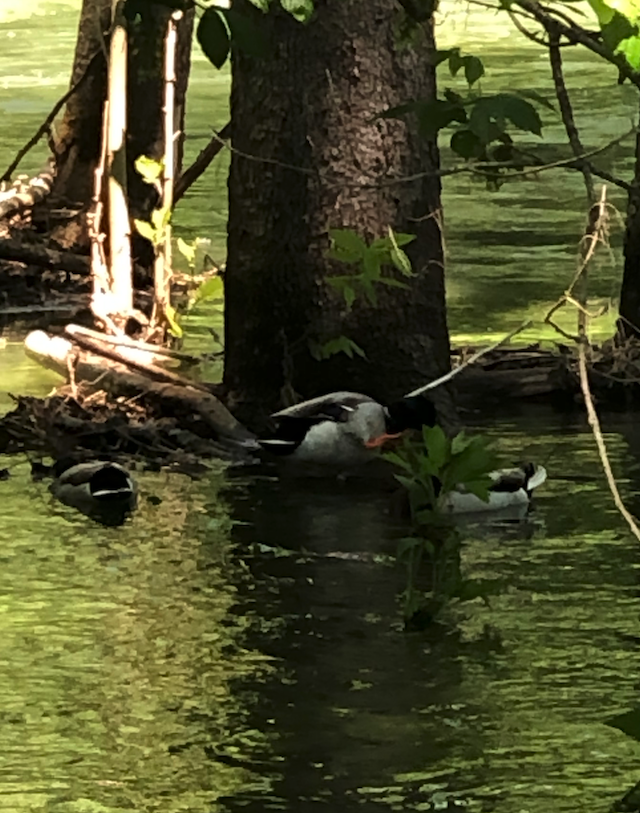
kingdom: Animalia
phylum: Chordata
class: Aves
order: Anseriformes
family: Anatidae
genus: Anas
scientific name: Anas platyrhynchos
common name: Mallard
